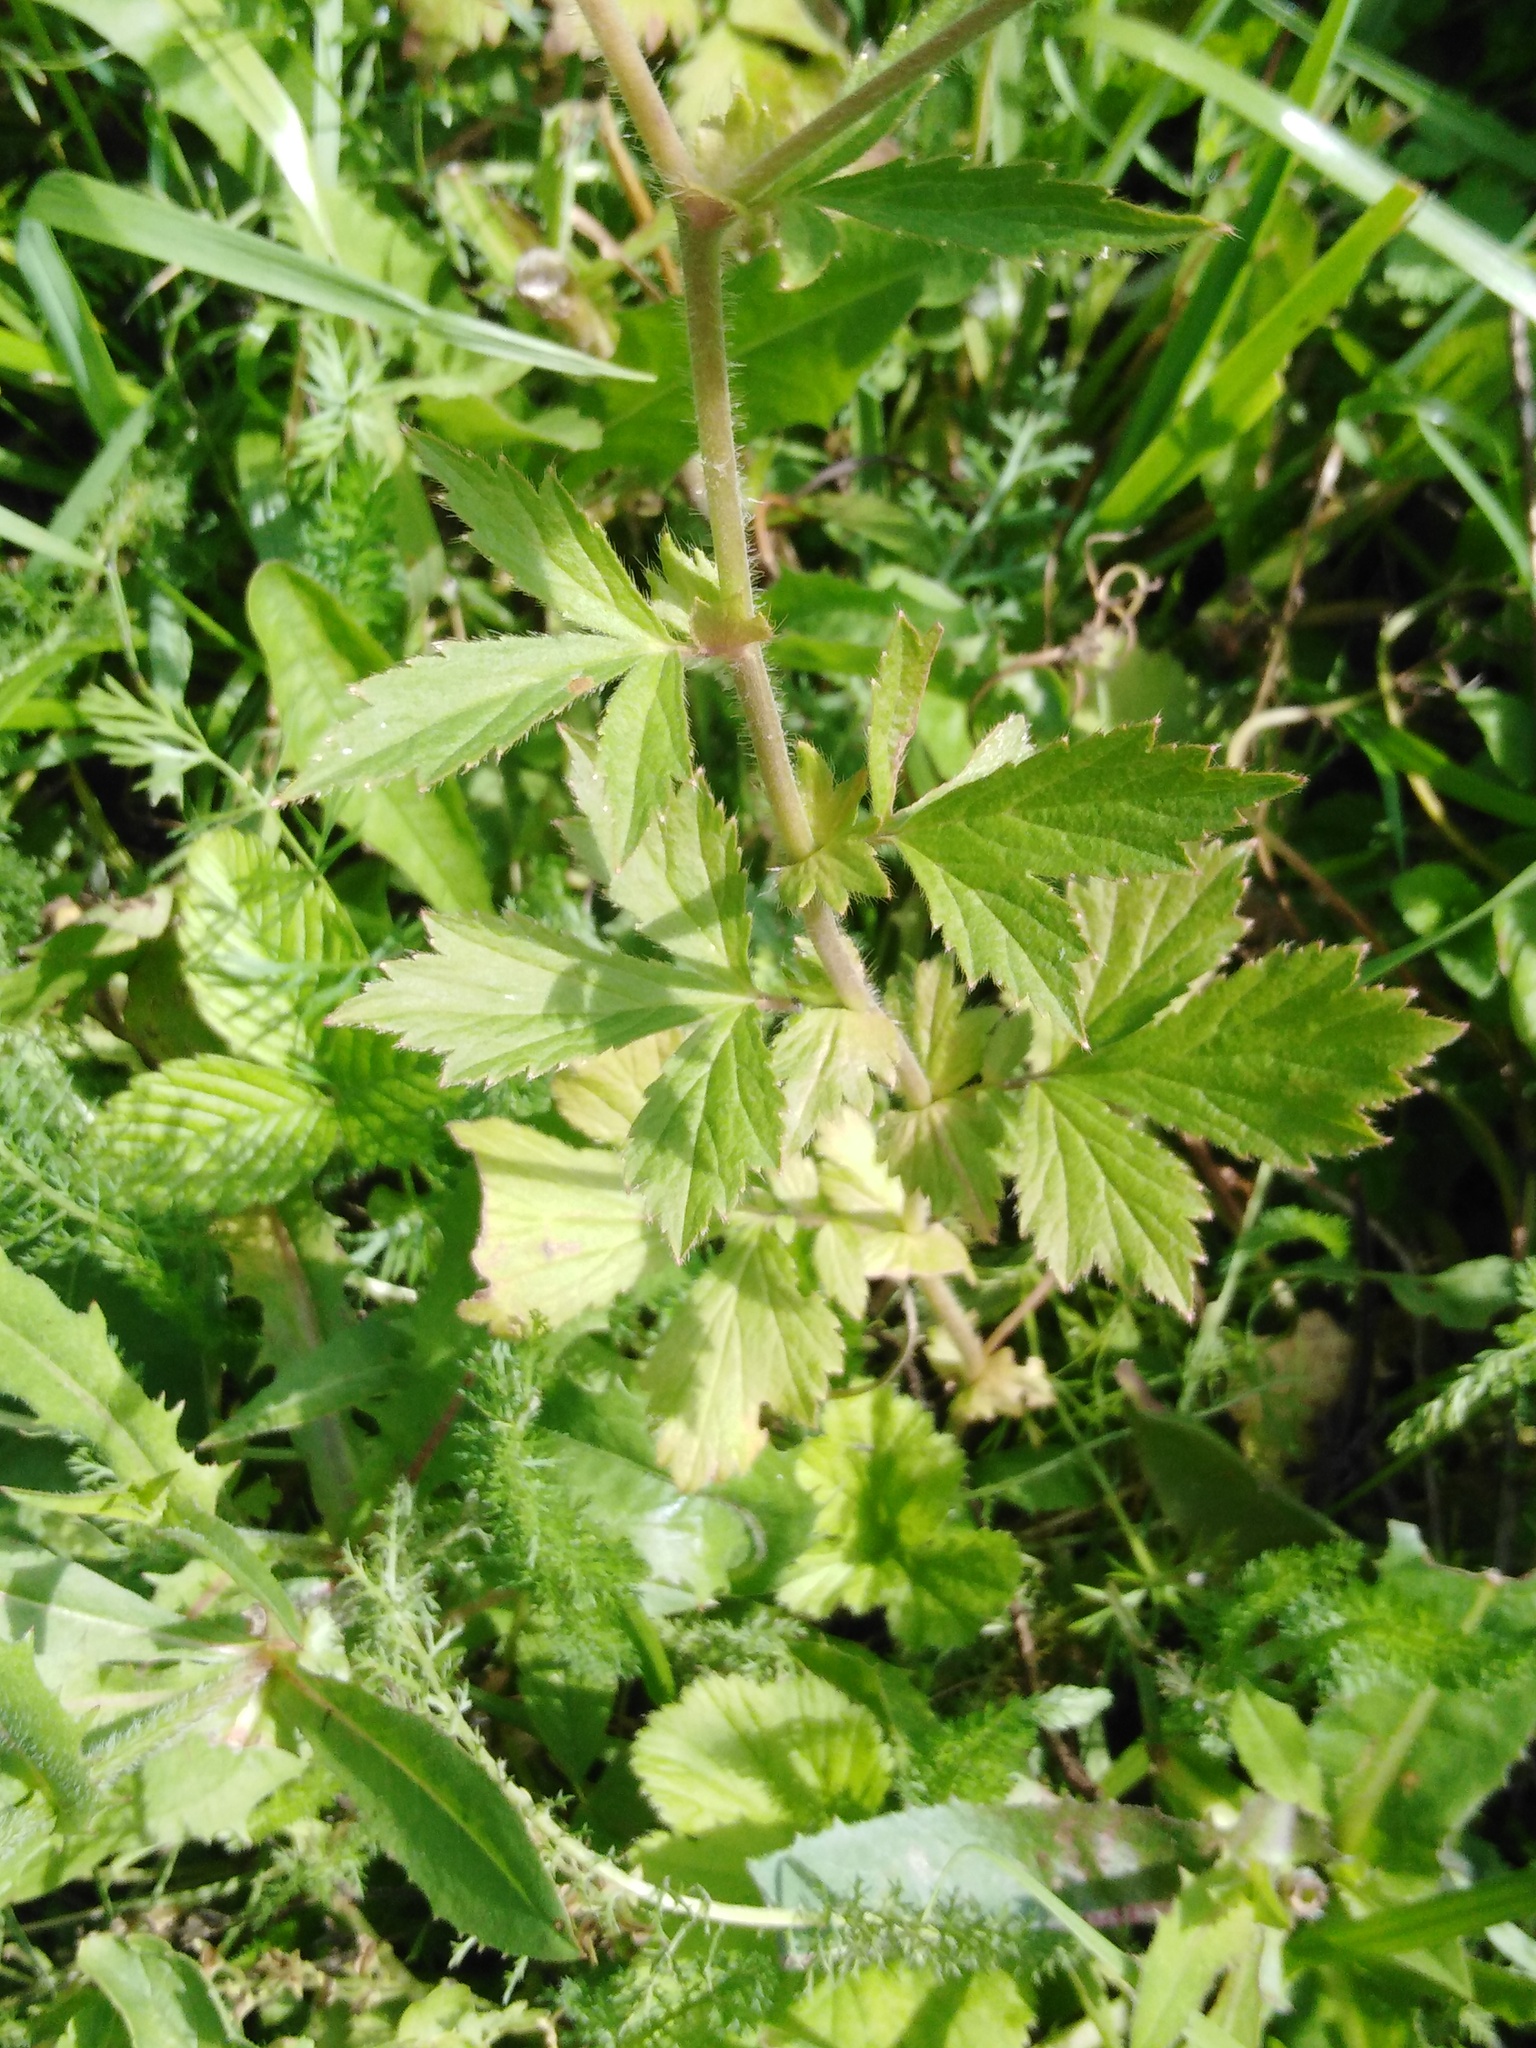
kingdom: Plantae
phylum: Tracheophyta
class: Magnoliopsida
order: Rosales
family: Rosaceae
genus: Geum
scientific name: Geum aleppicum
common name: Yellow avens
